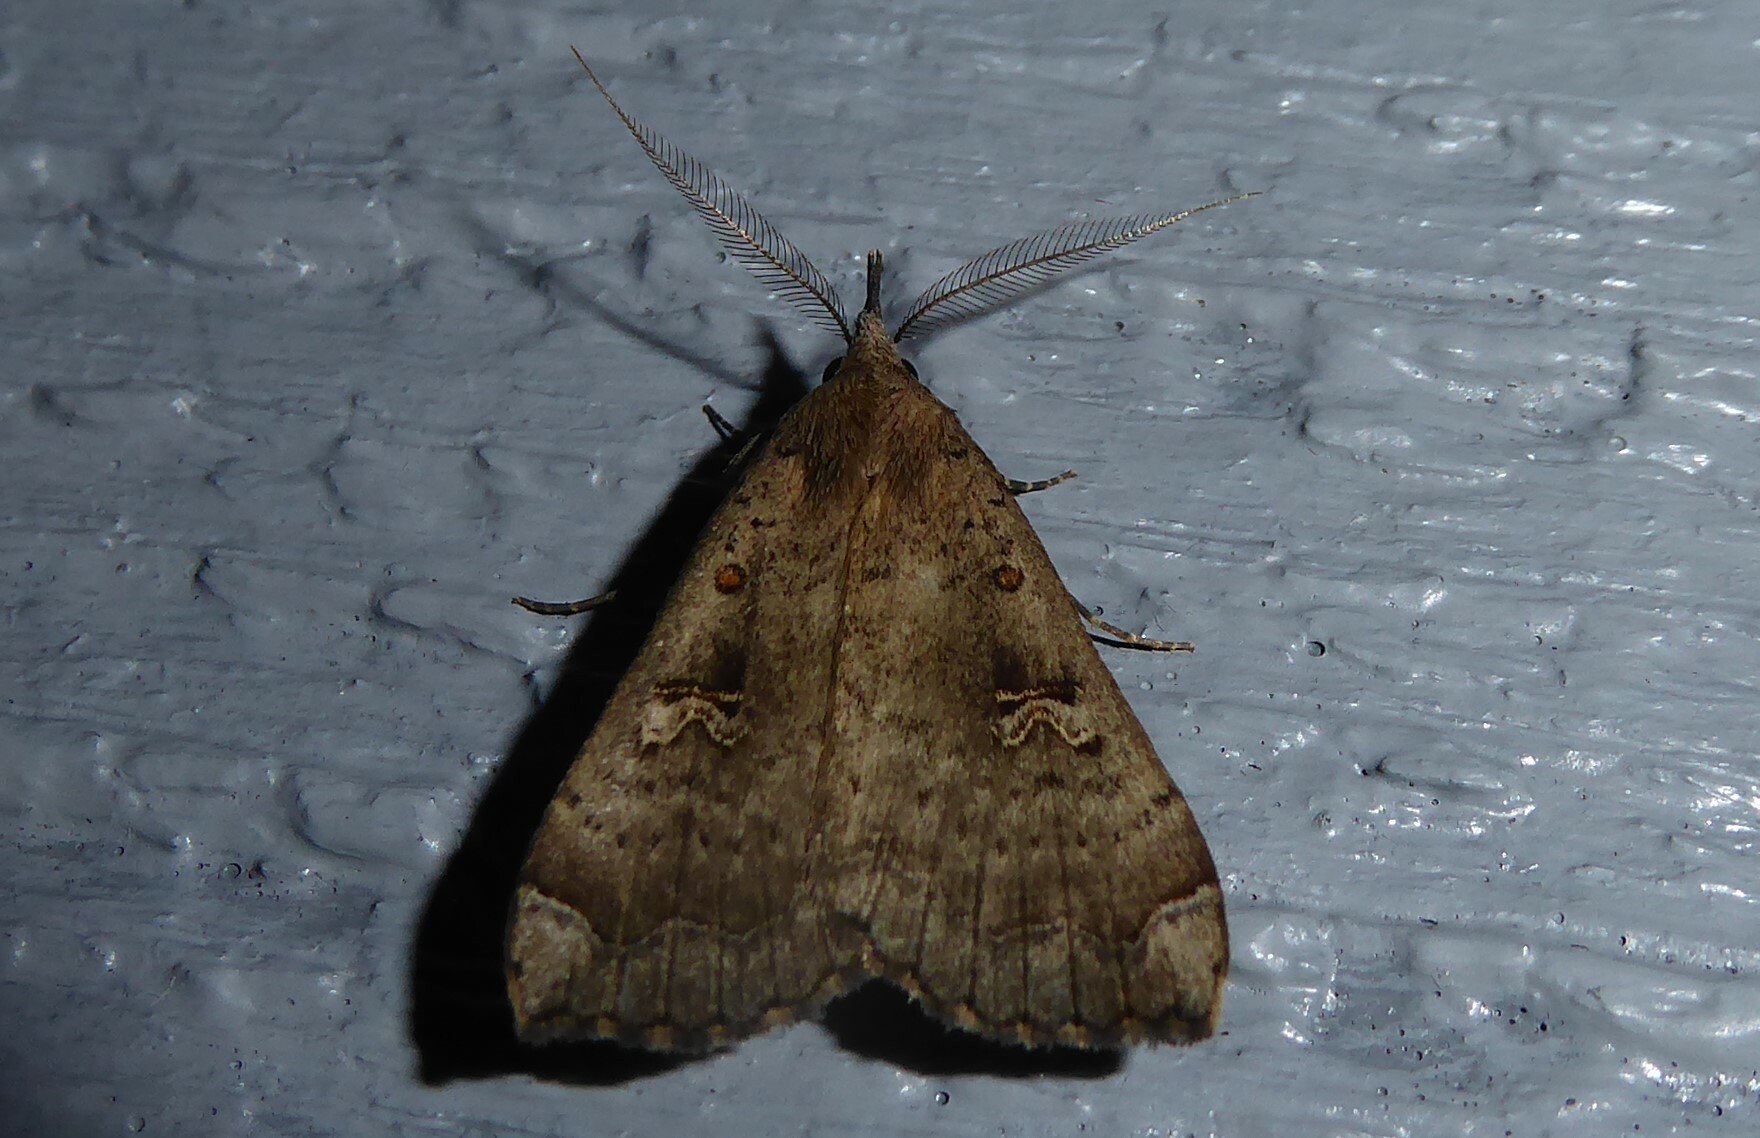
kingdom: Animalia
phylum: Arthropoda
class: Insecta
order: Lepidoptera
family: Erebidae
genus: Rhapsa
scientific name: Rhapsa scotosialis
